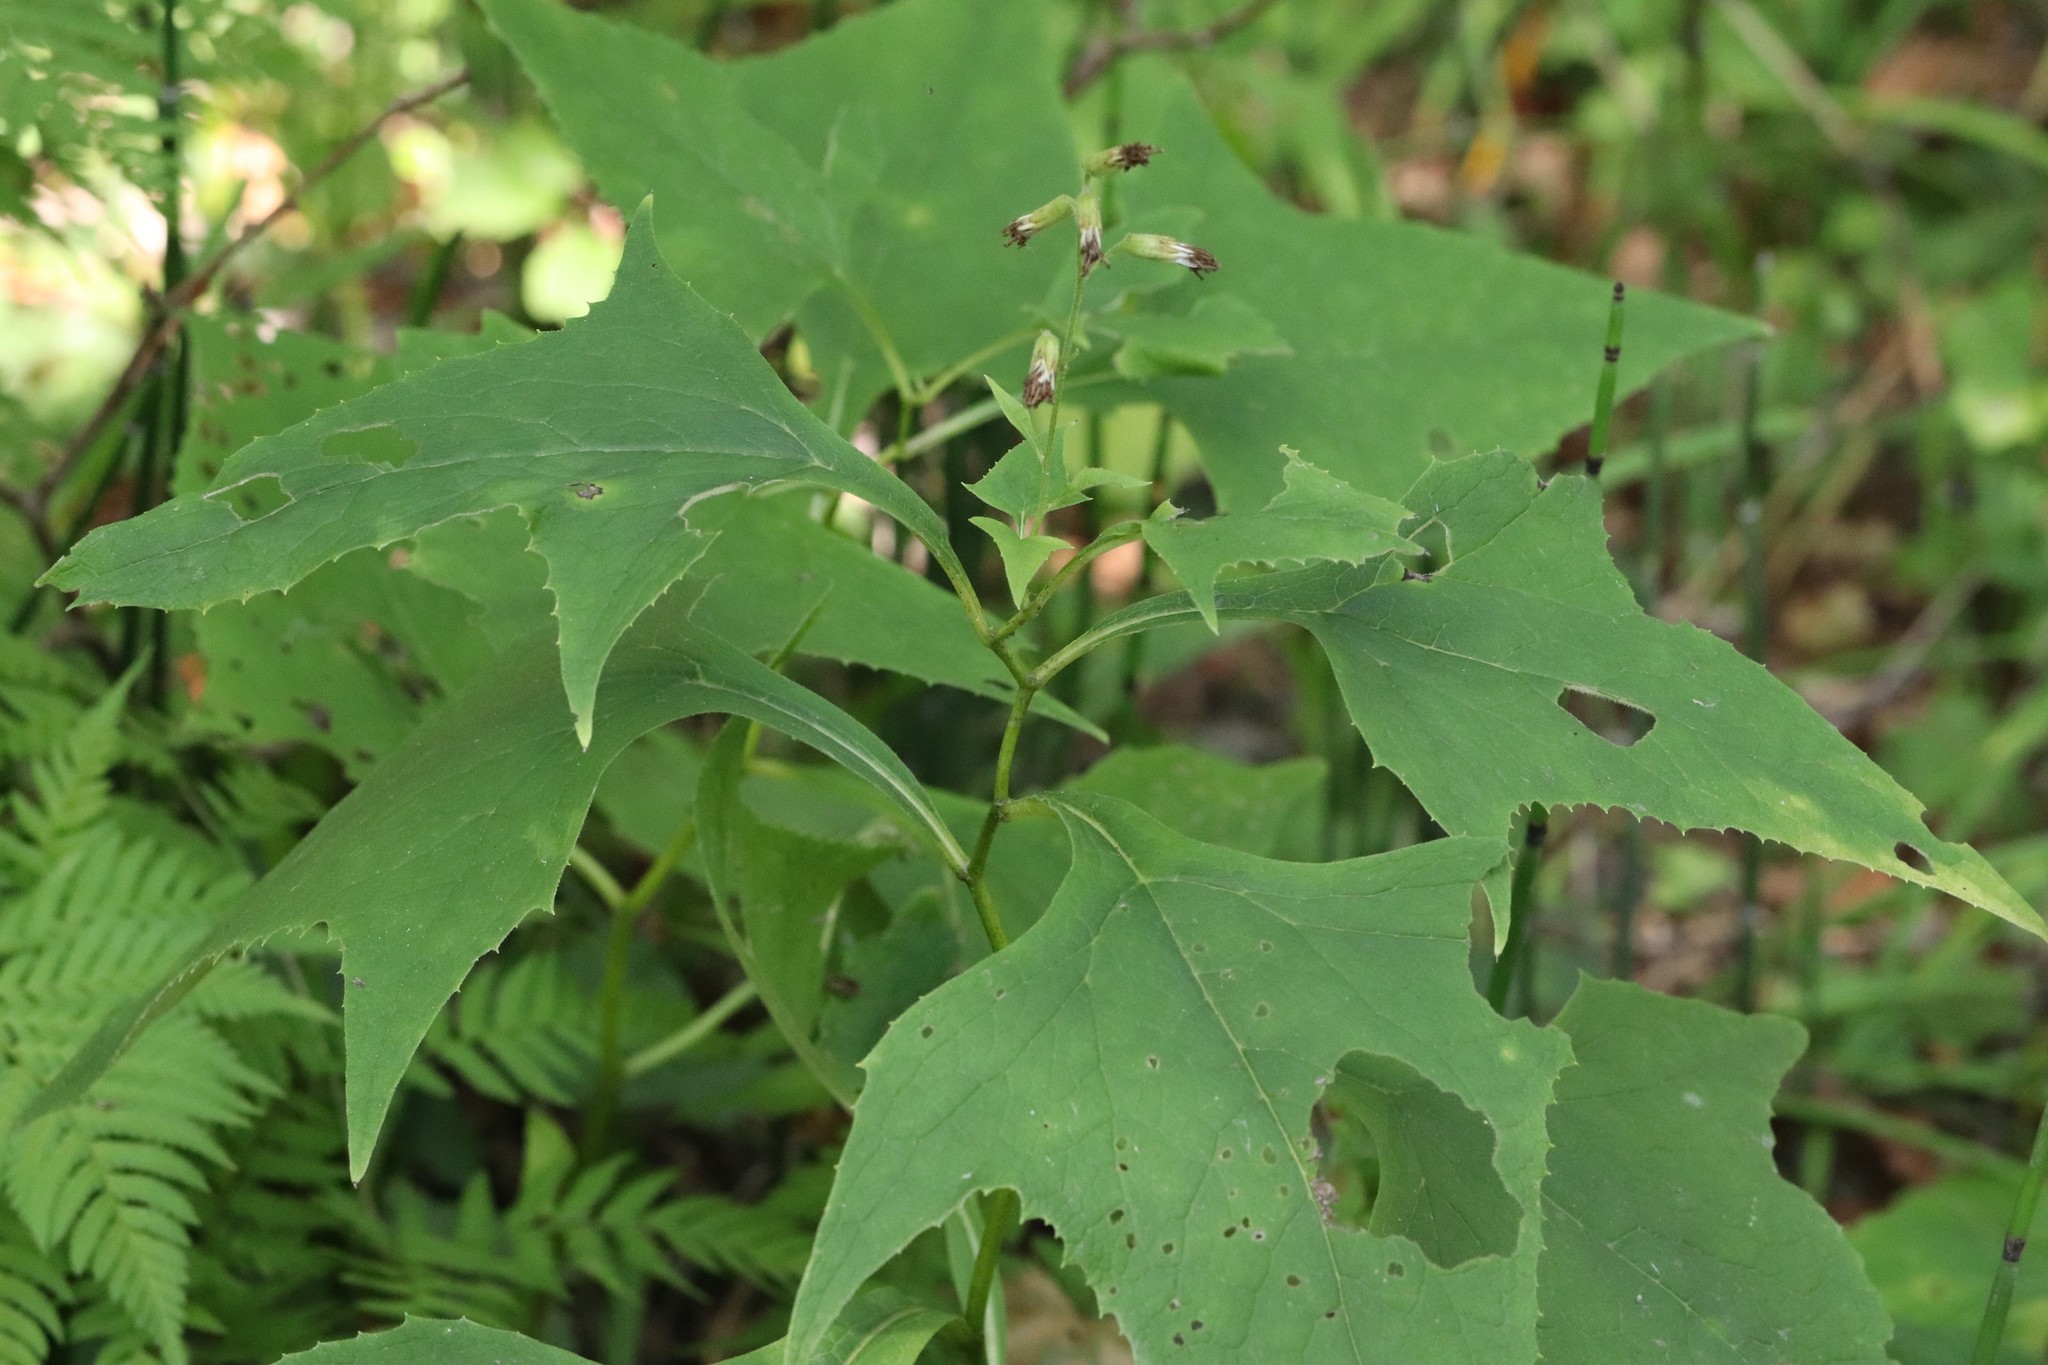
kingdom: Plantae
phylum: Tracheophyta
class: Magnoliopsida
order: Asterales
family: Asteraceae
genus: Parasenecio
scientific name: Parasenecio hastatus
